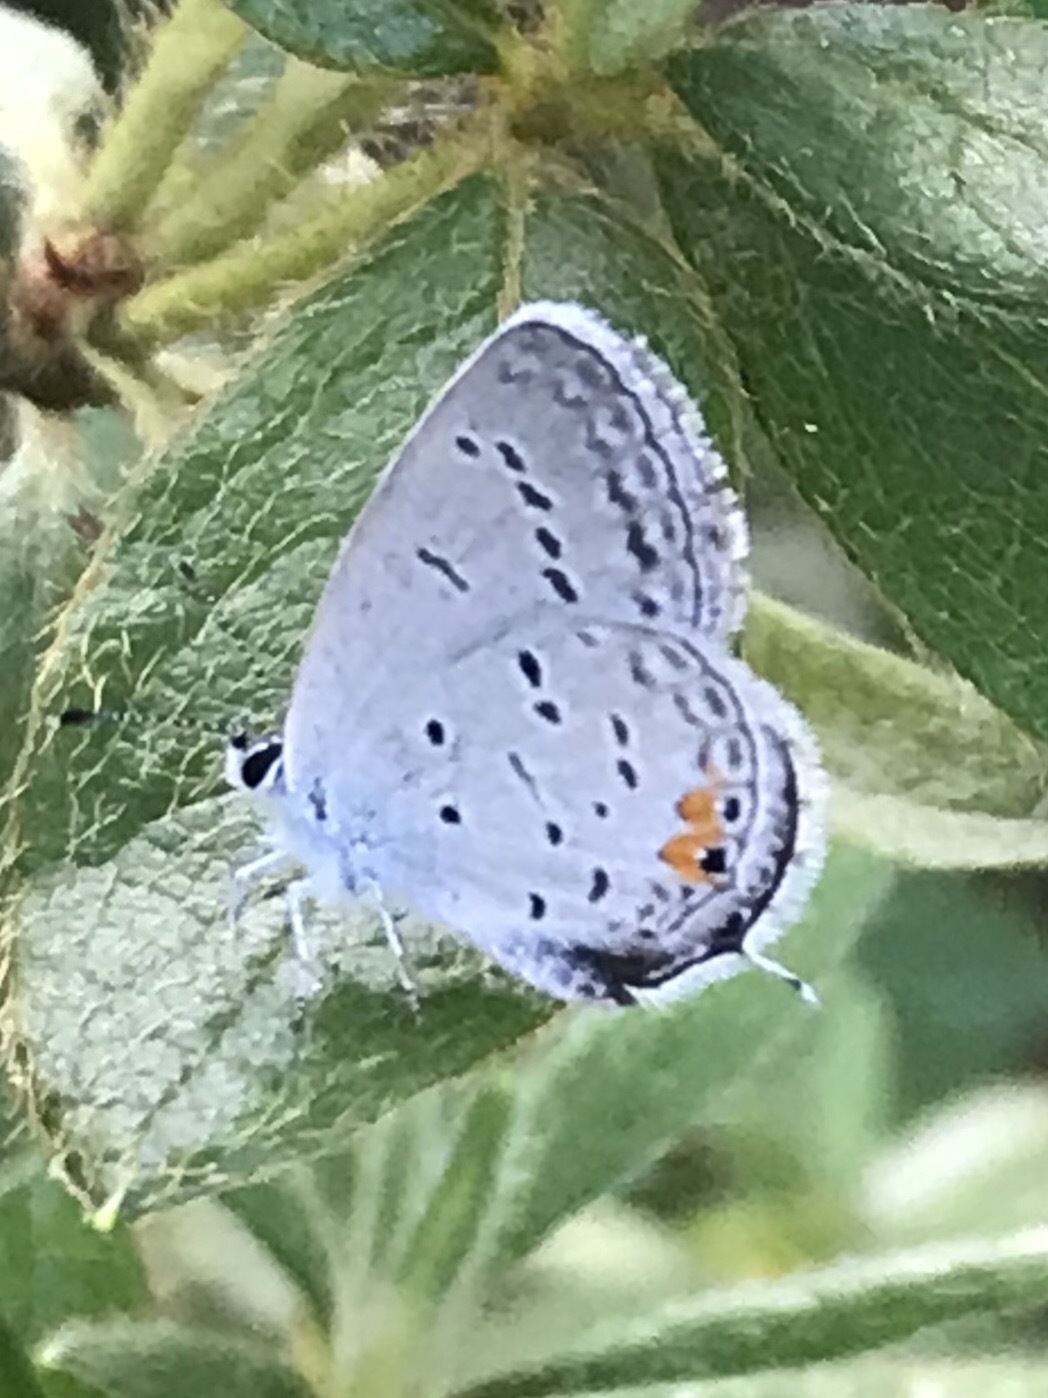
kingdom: Animalia
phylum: Arthropoda
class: Insecta
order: Lepidoptera
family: Lycaenidae
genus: Elkalyce
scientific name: Elkalyce comyntas
